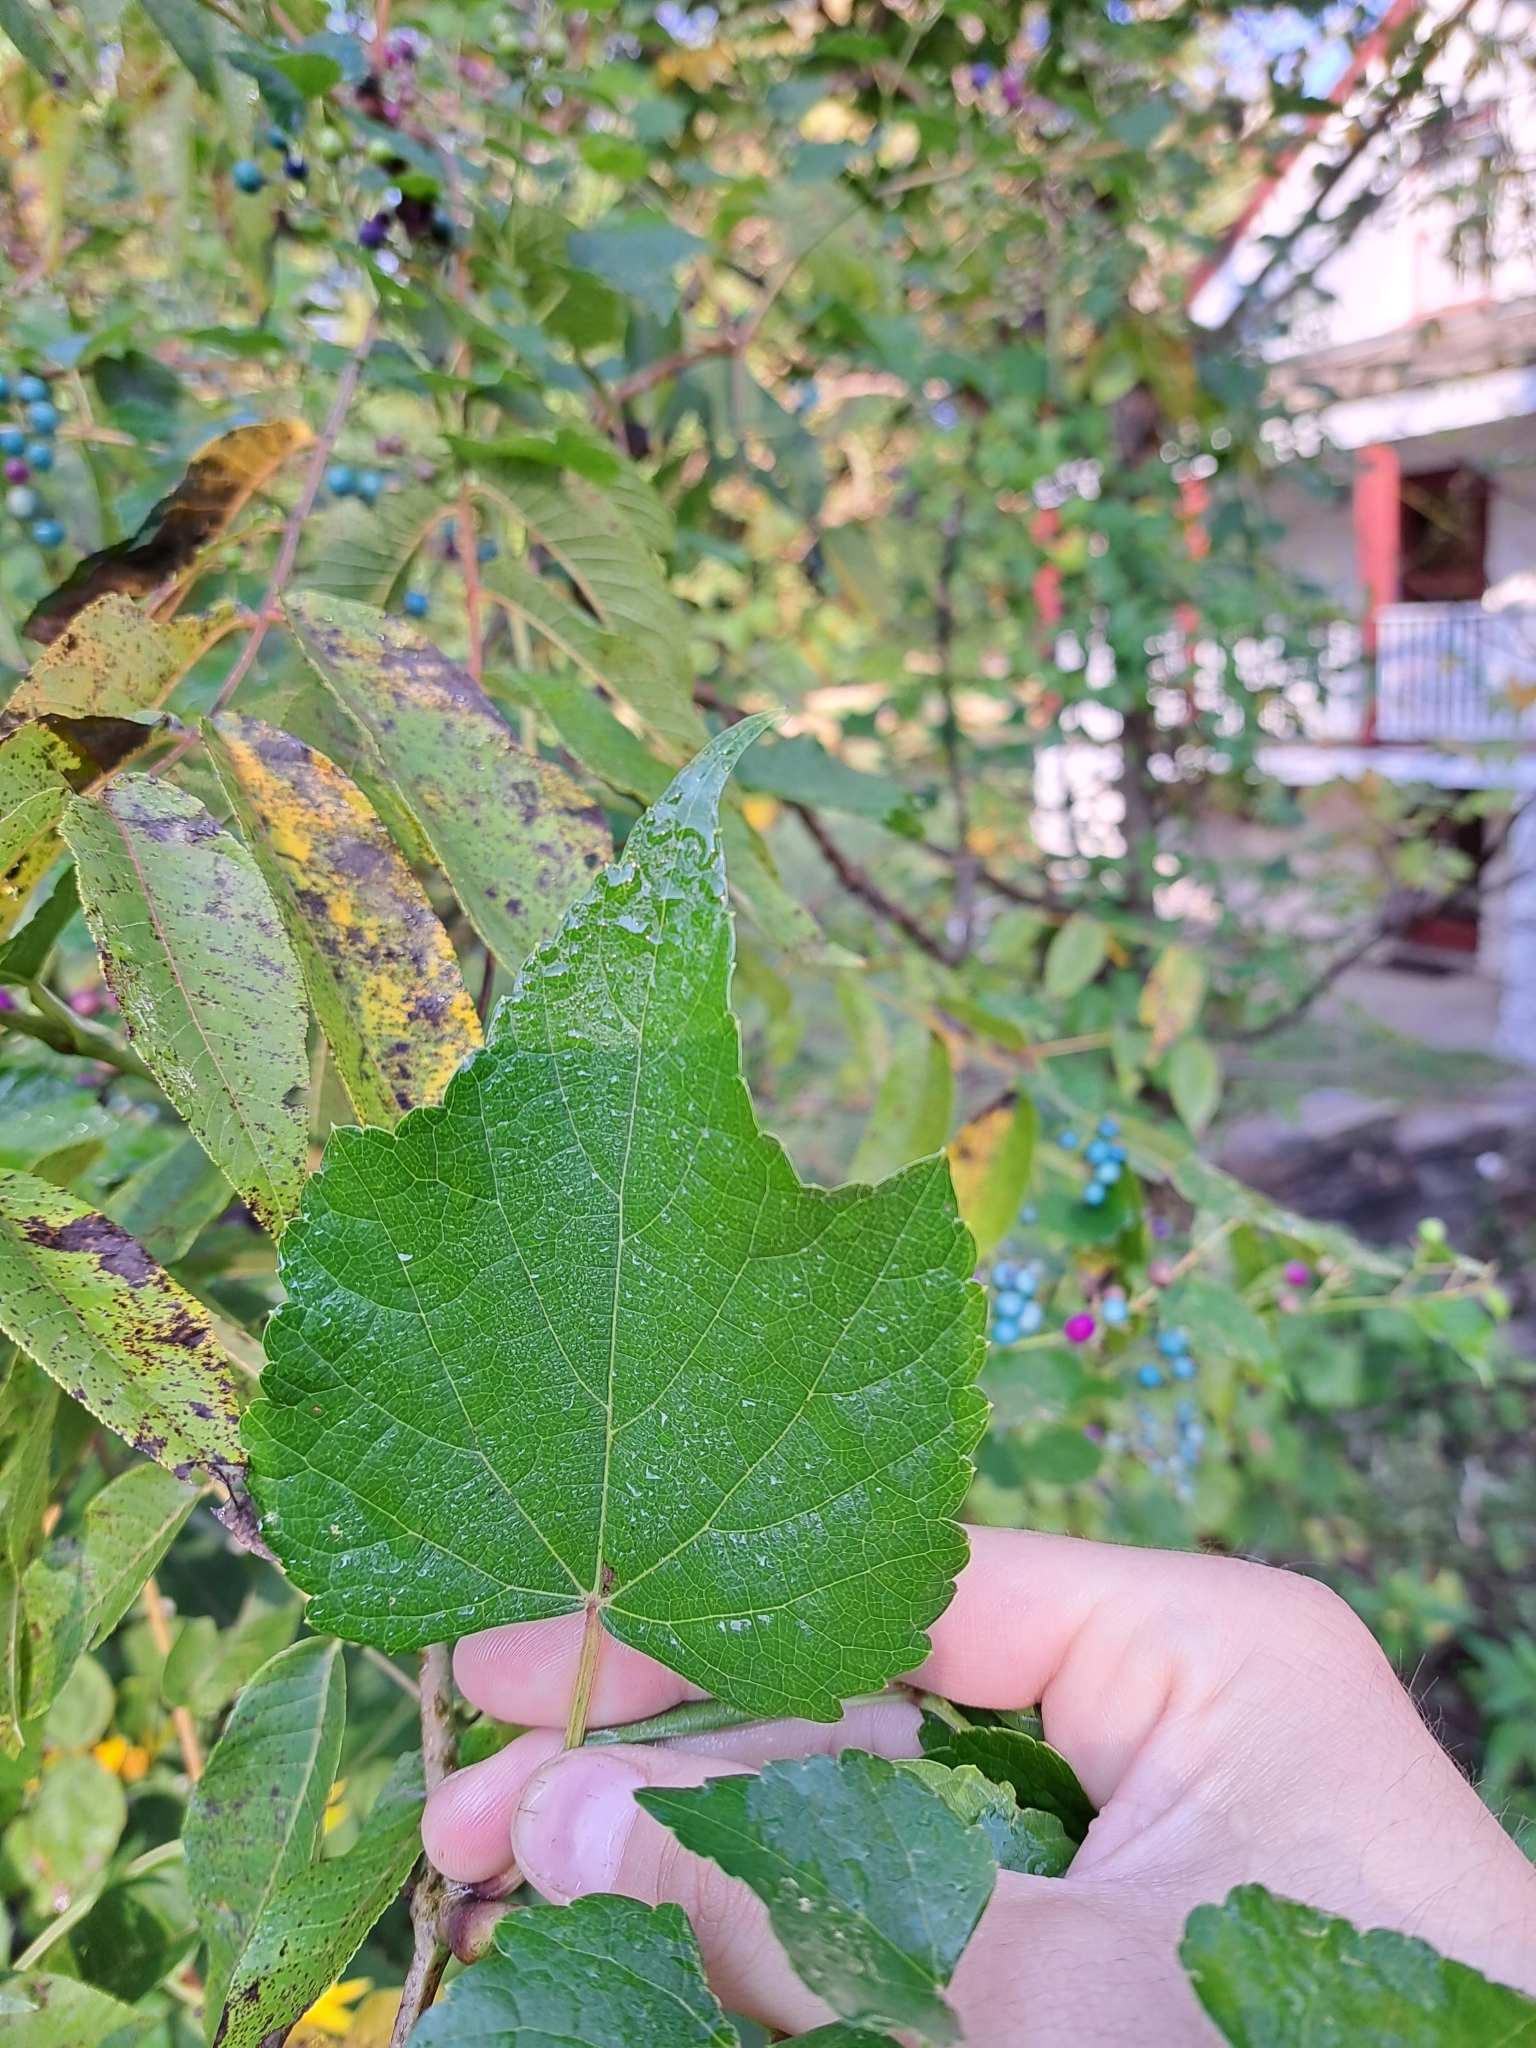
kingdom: Plantae
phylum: Tracheophyta
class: Magnoliopsida
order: Vitales
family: Vitaceae
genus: Ampelopsis
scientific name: Ampelopsis glandulosa
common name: Amur peppervine
